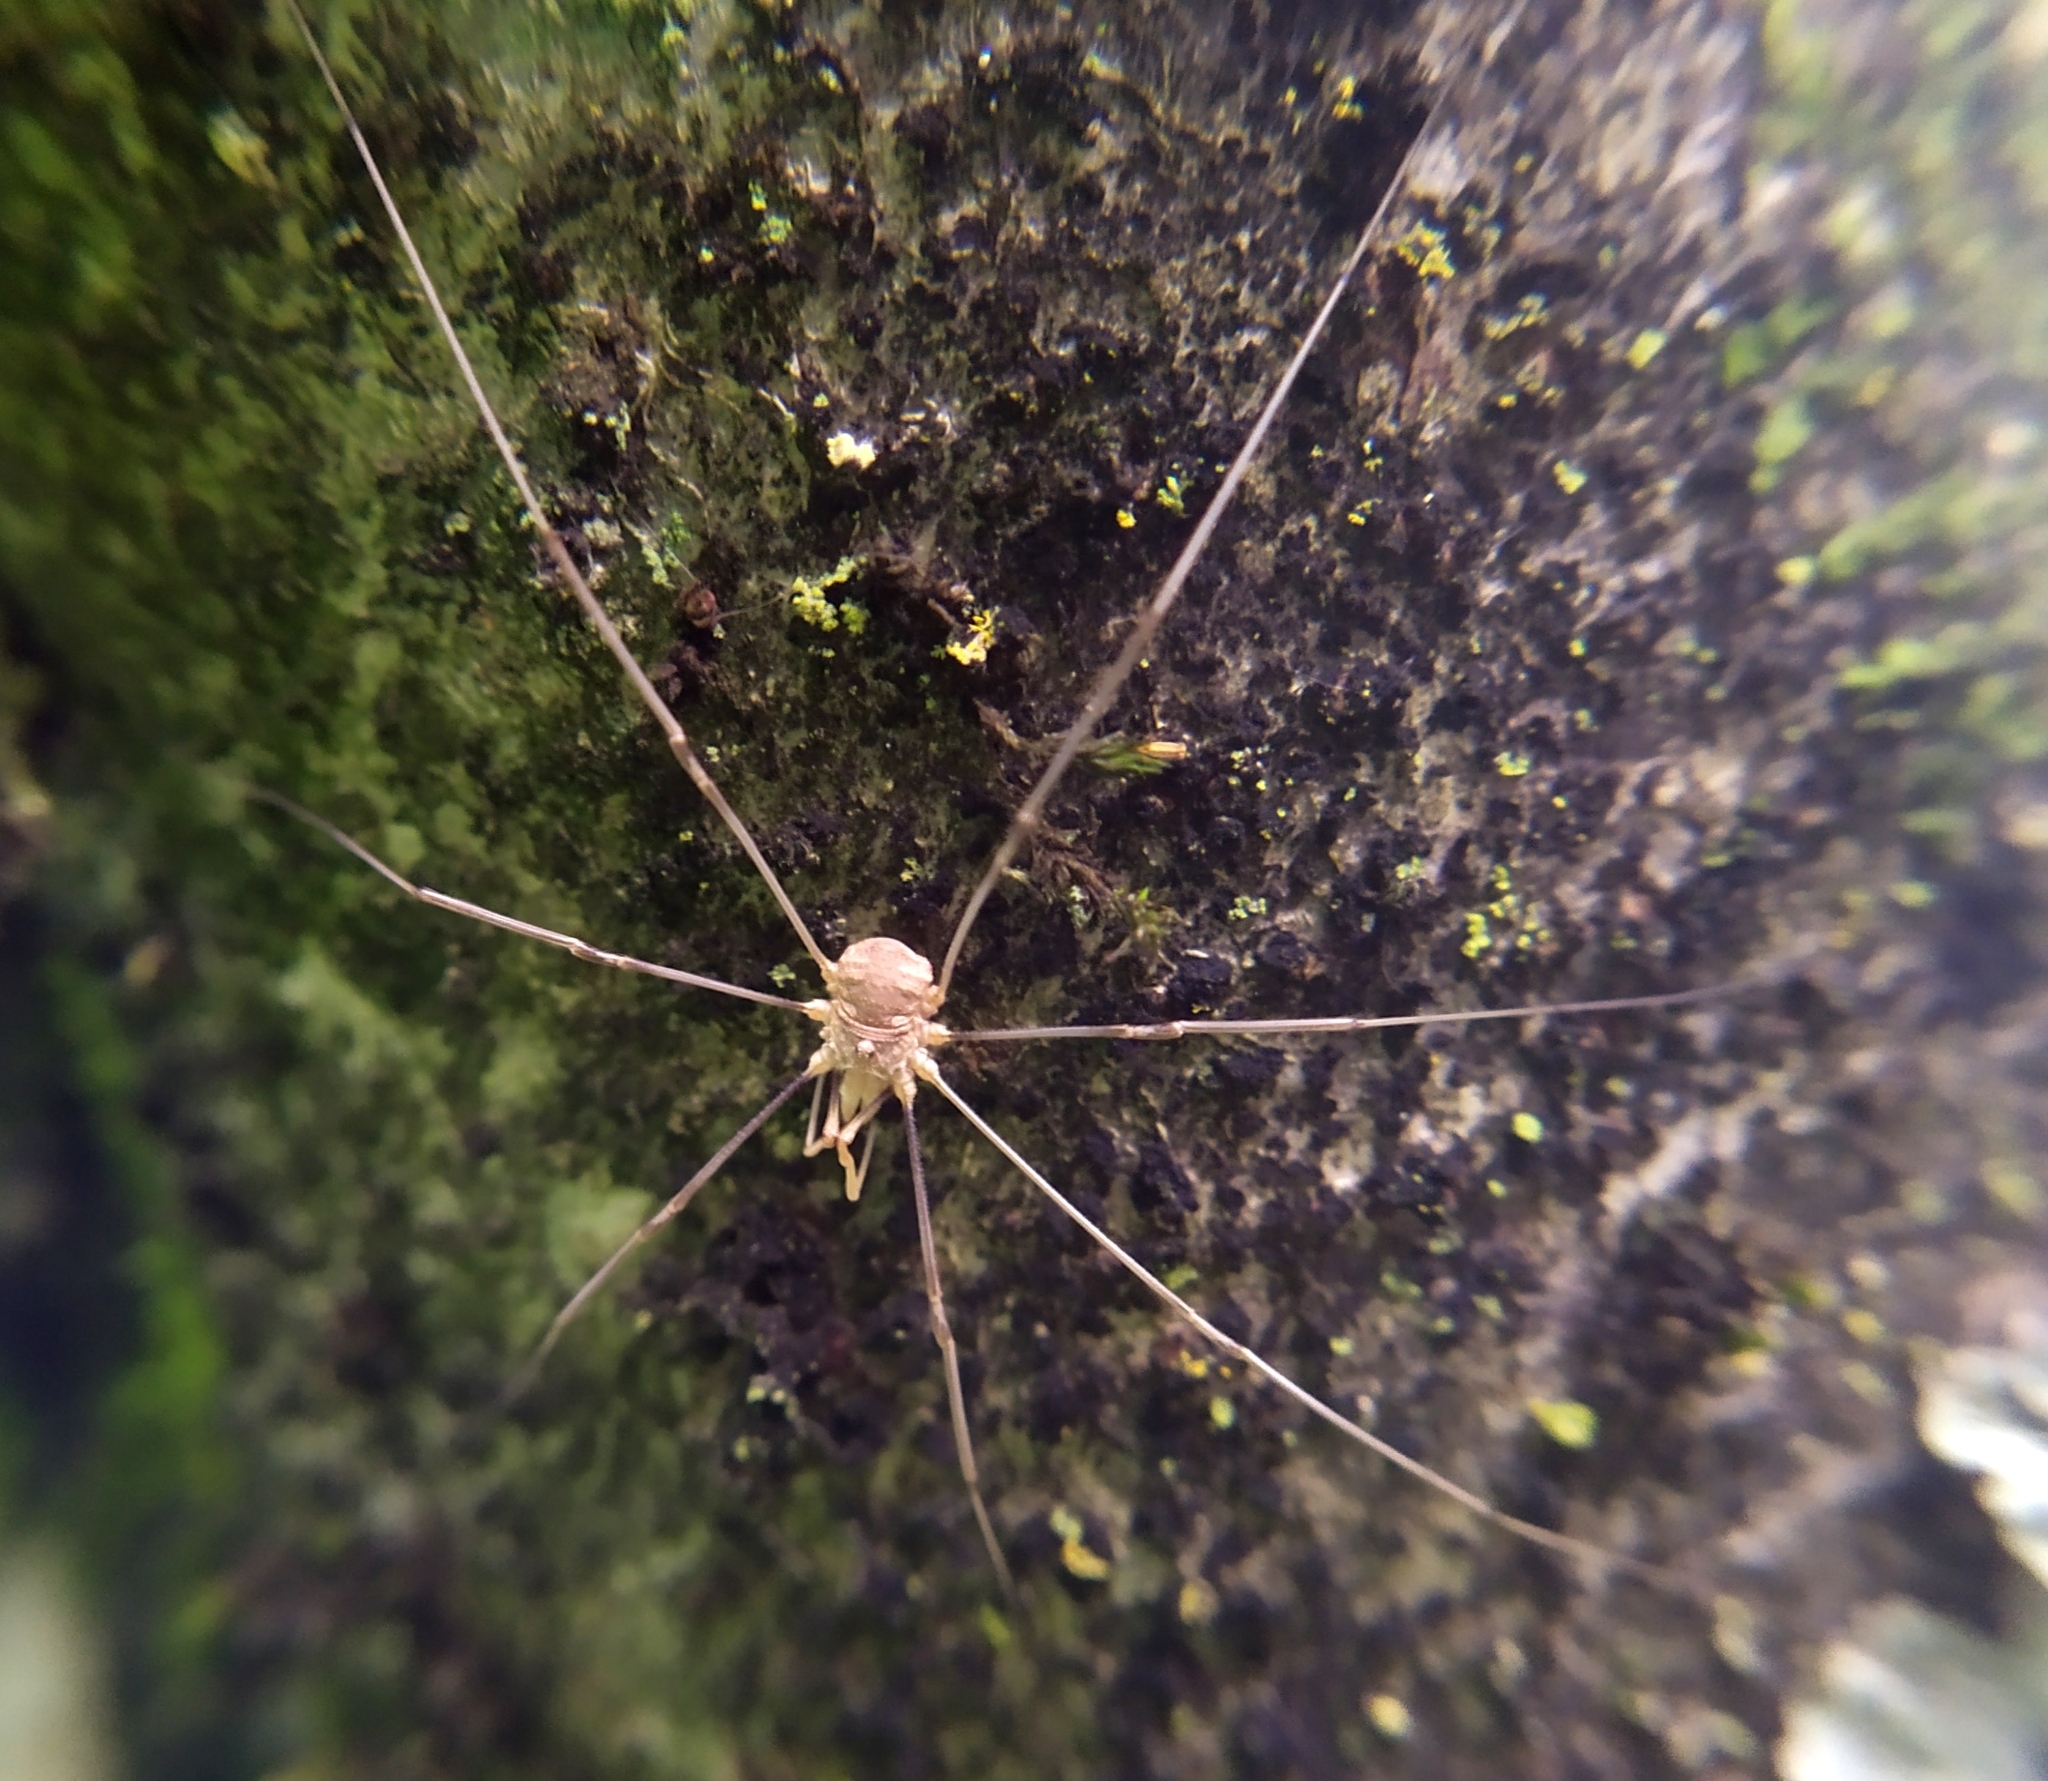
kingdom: Animalia
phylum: Arthropoda
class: Arachnida
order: Opiliones
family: Phalangiidae
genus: Phalangium
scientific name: Phalangium opilio
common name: Daddy longleg
